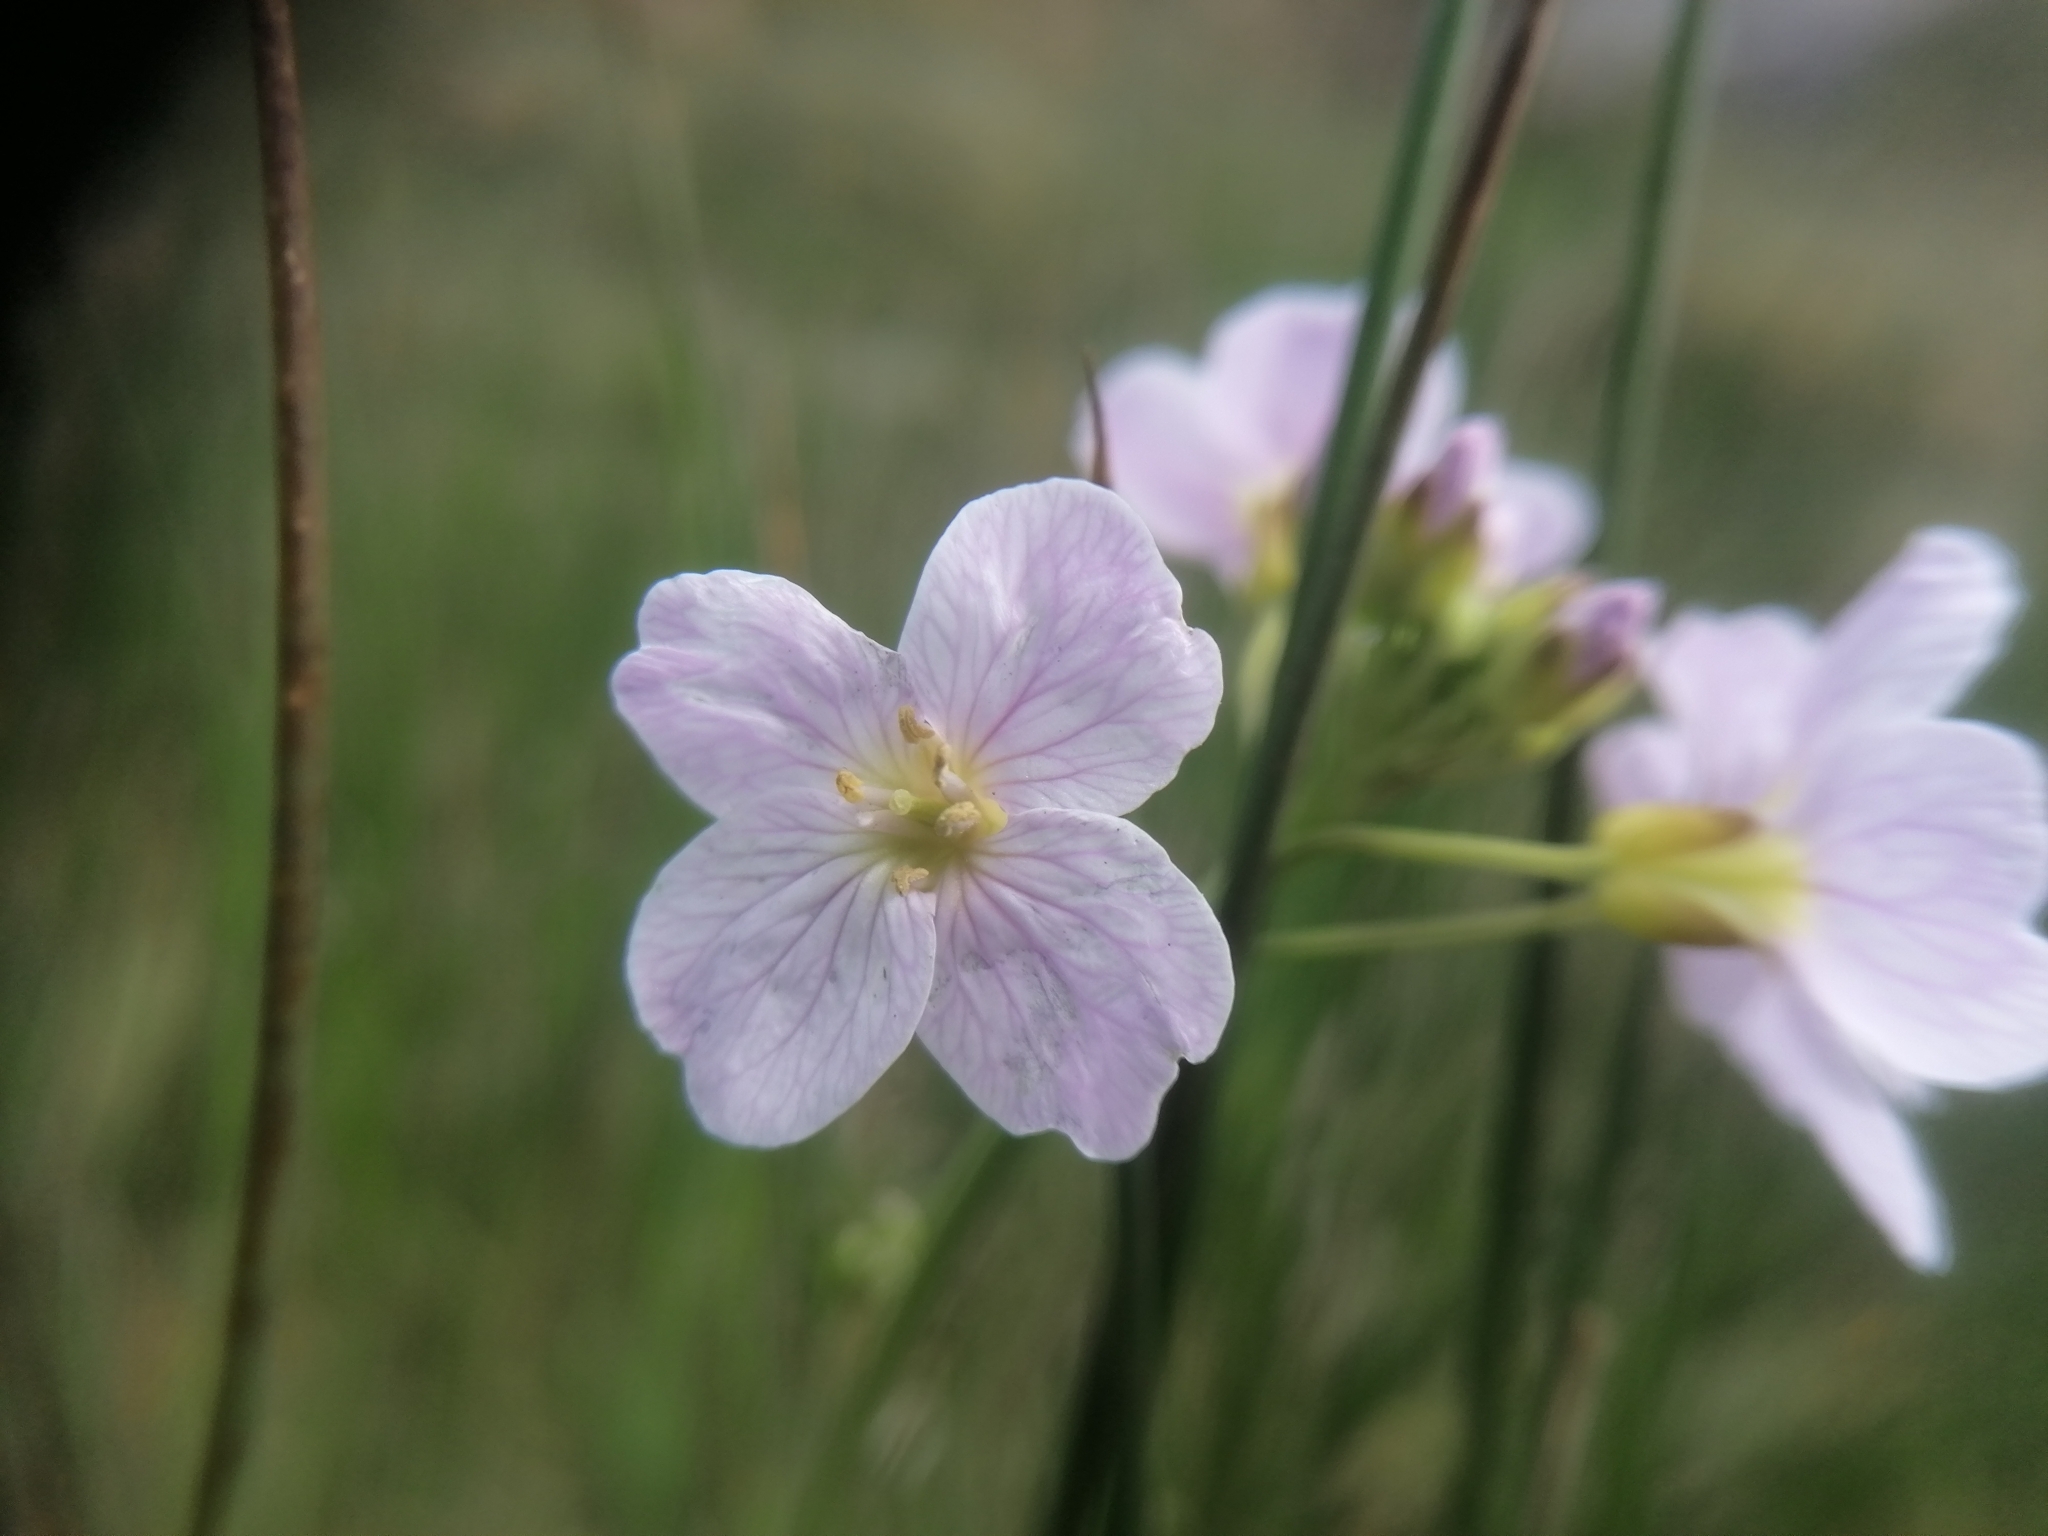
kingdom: Plantae
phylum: Tracheophyta
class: Magnoliopsida
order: Brassicales
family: Brassicaceae
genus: Cardamine
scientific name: Cardamine pratensis
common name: Cuckoo flower
